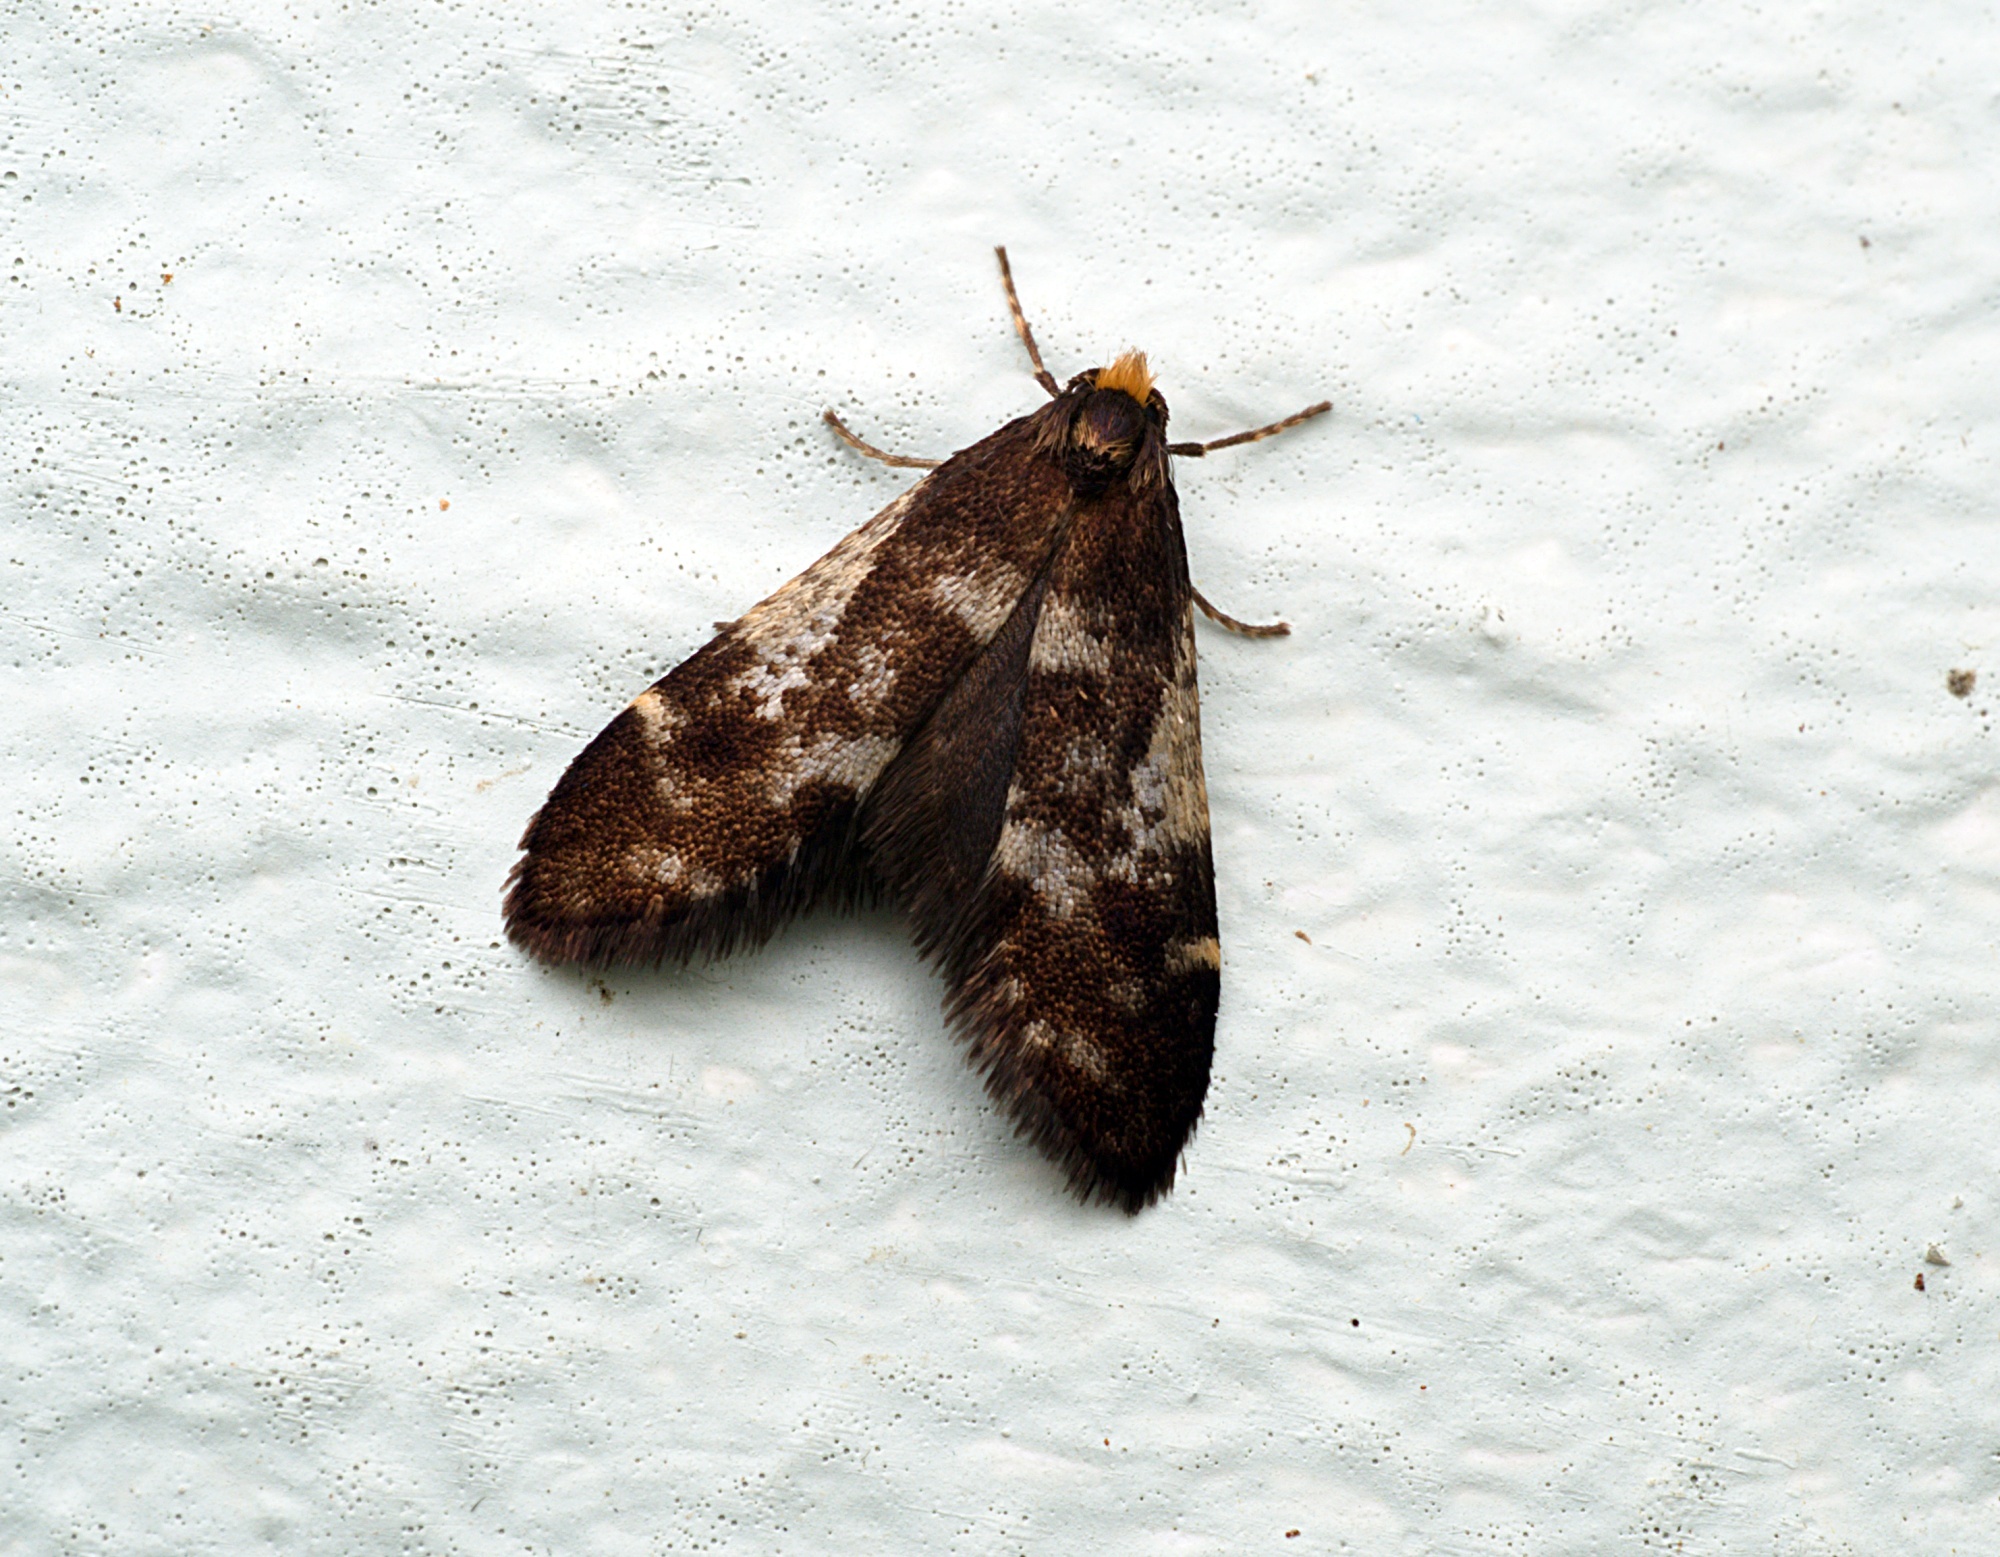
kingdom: Animalia
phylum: Arthropoda
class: Insecta
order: Lepidoptera
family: Psychidae
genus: Lepidoscia
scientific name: Lepidoscia lainodes
